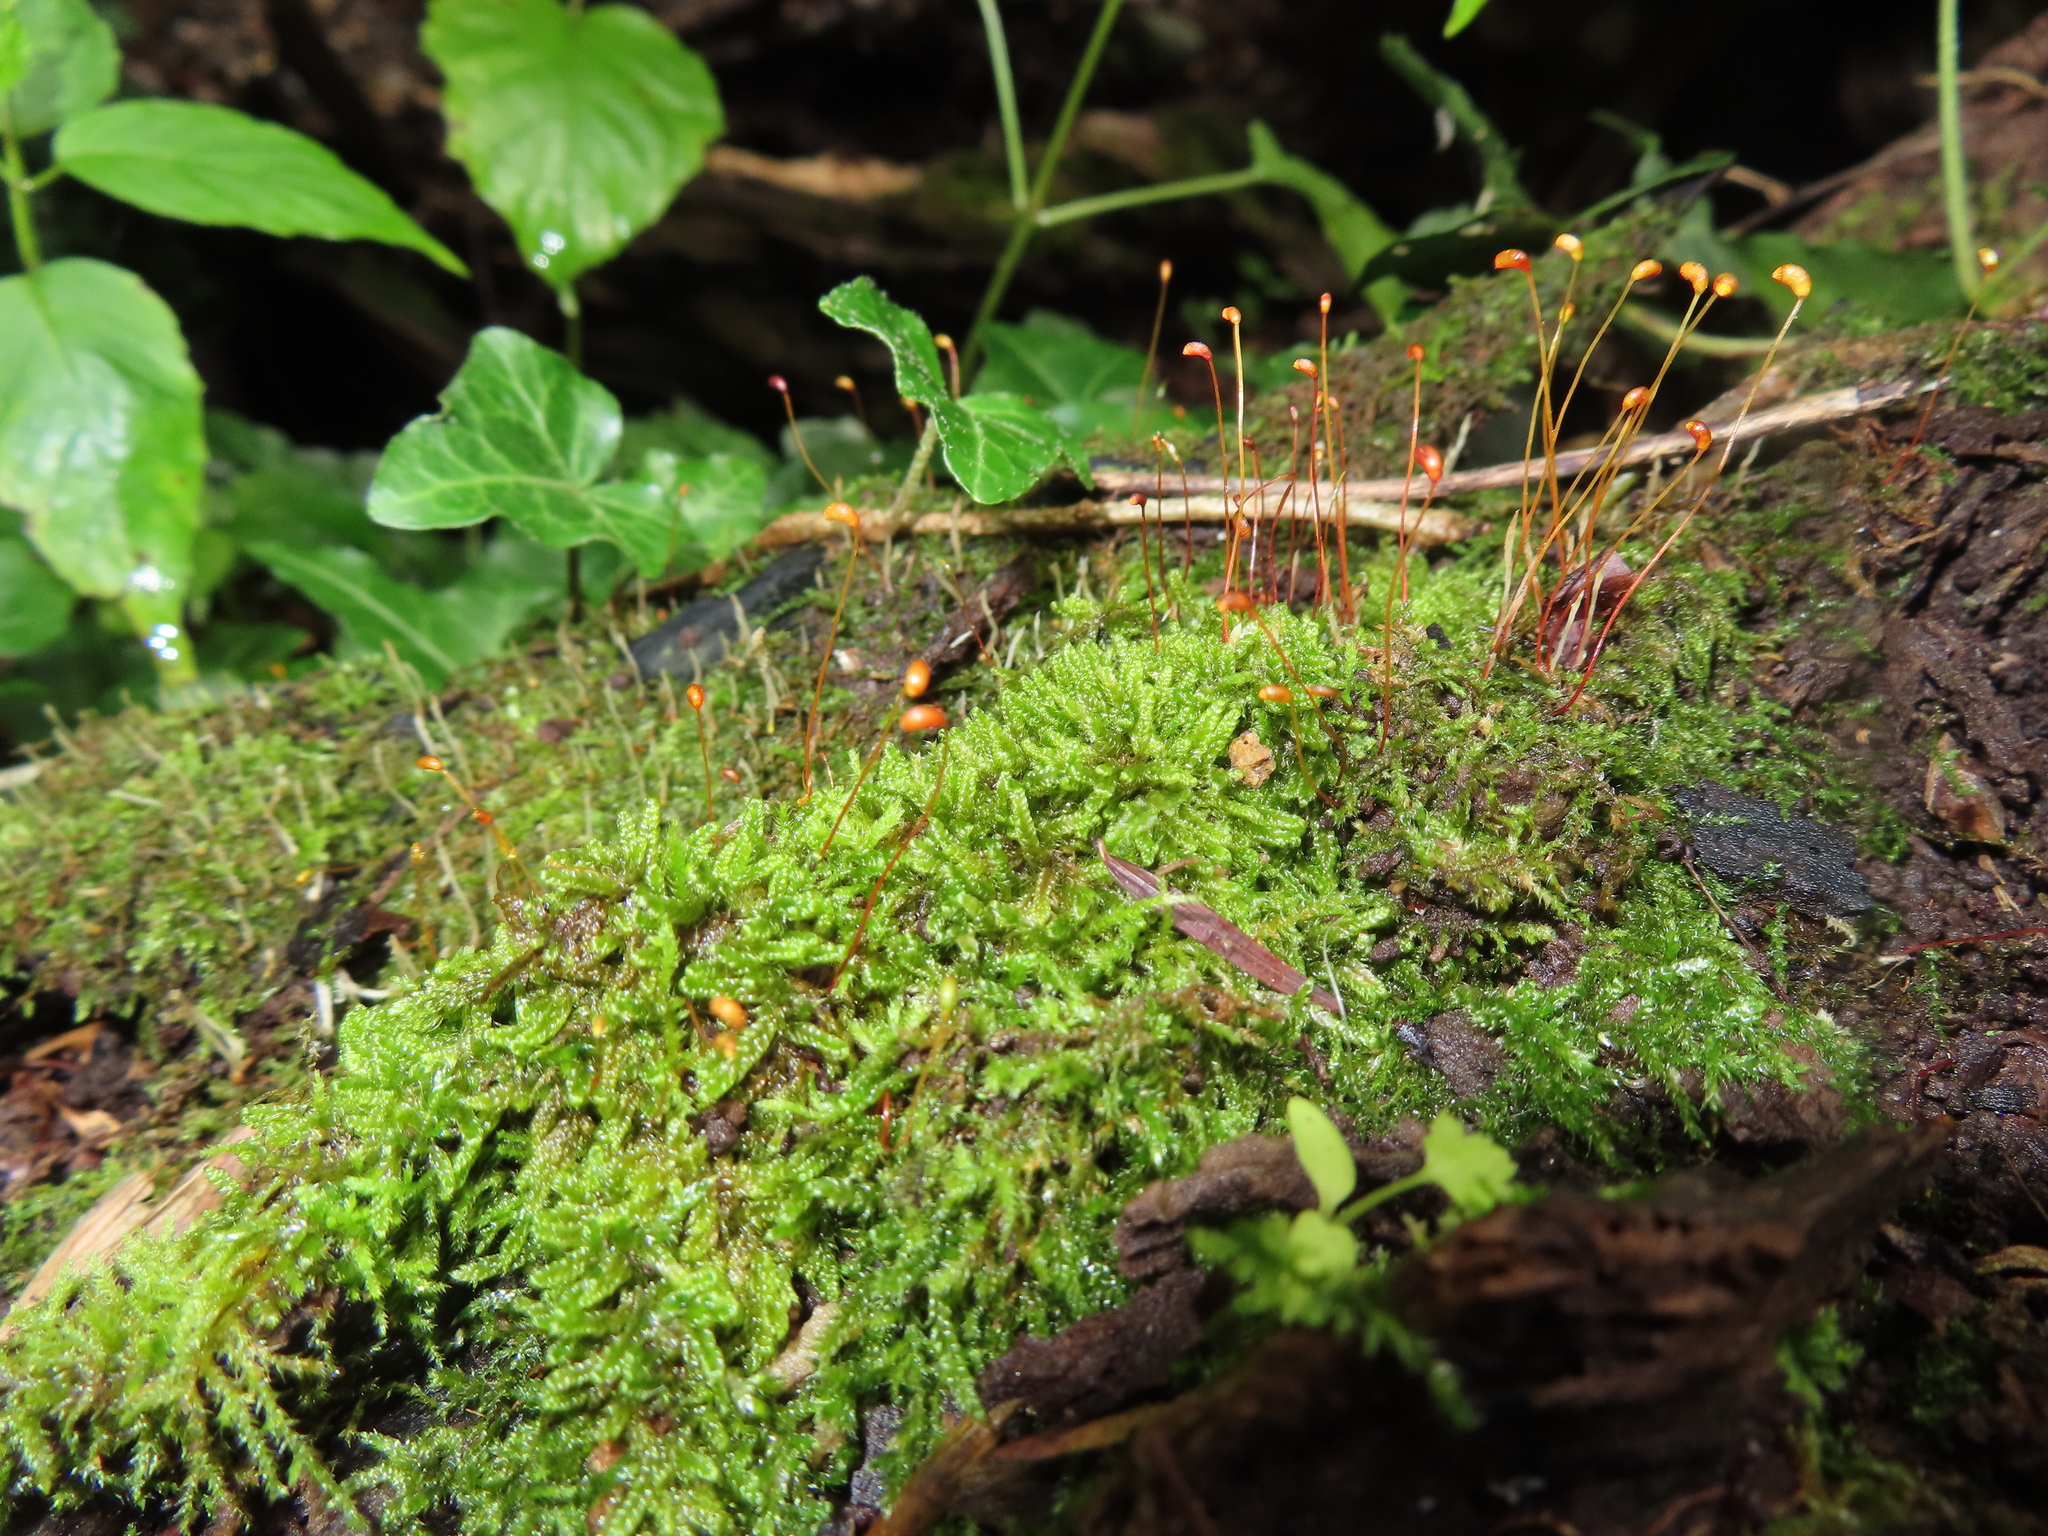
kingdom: Plantae
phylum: Bryophyta
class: Bryopsida
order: Hypnales
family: Pylaisiaceae
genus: Calliergonella
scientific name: Calliergonella curvifolia
